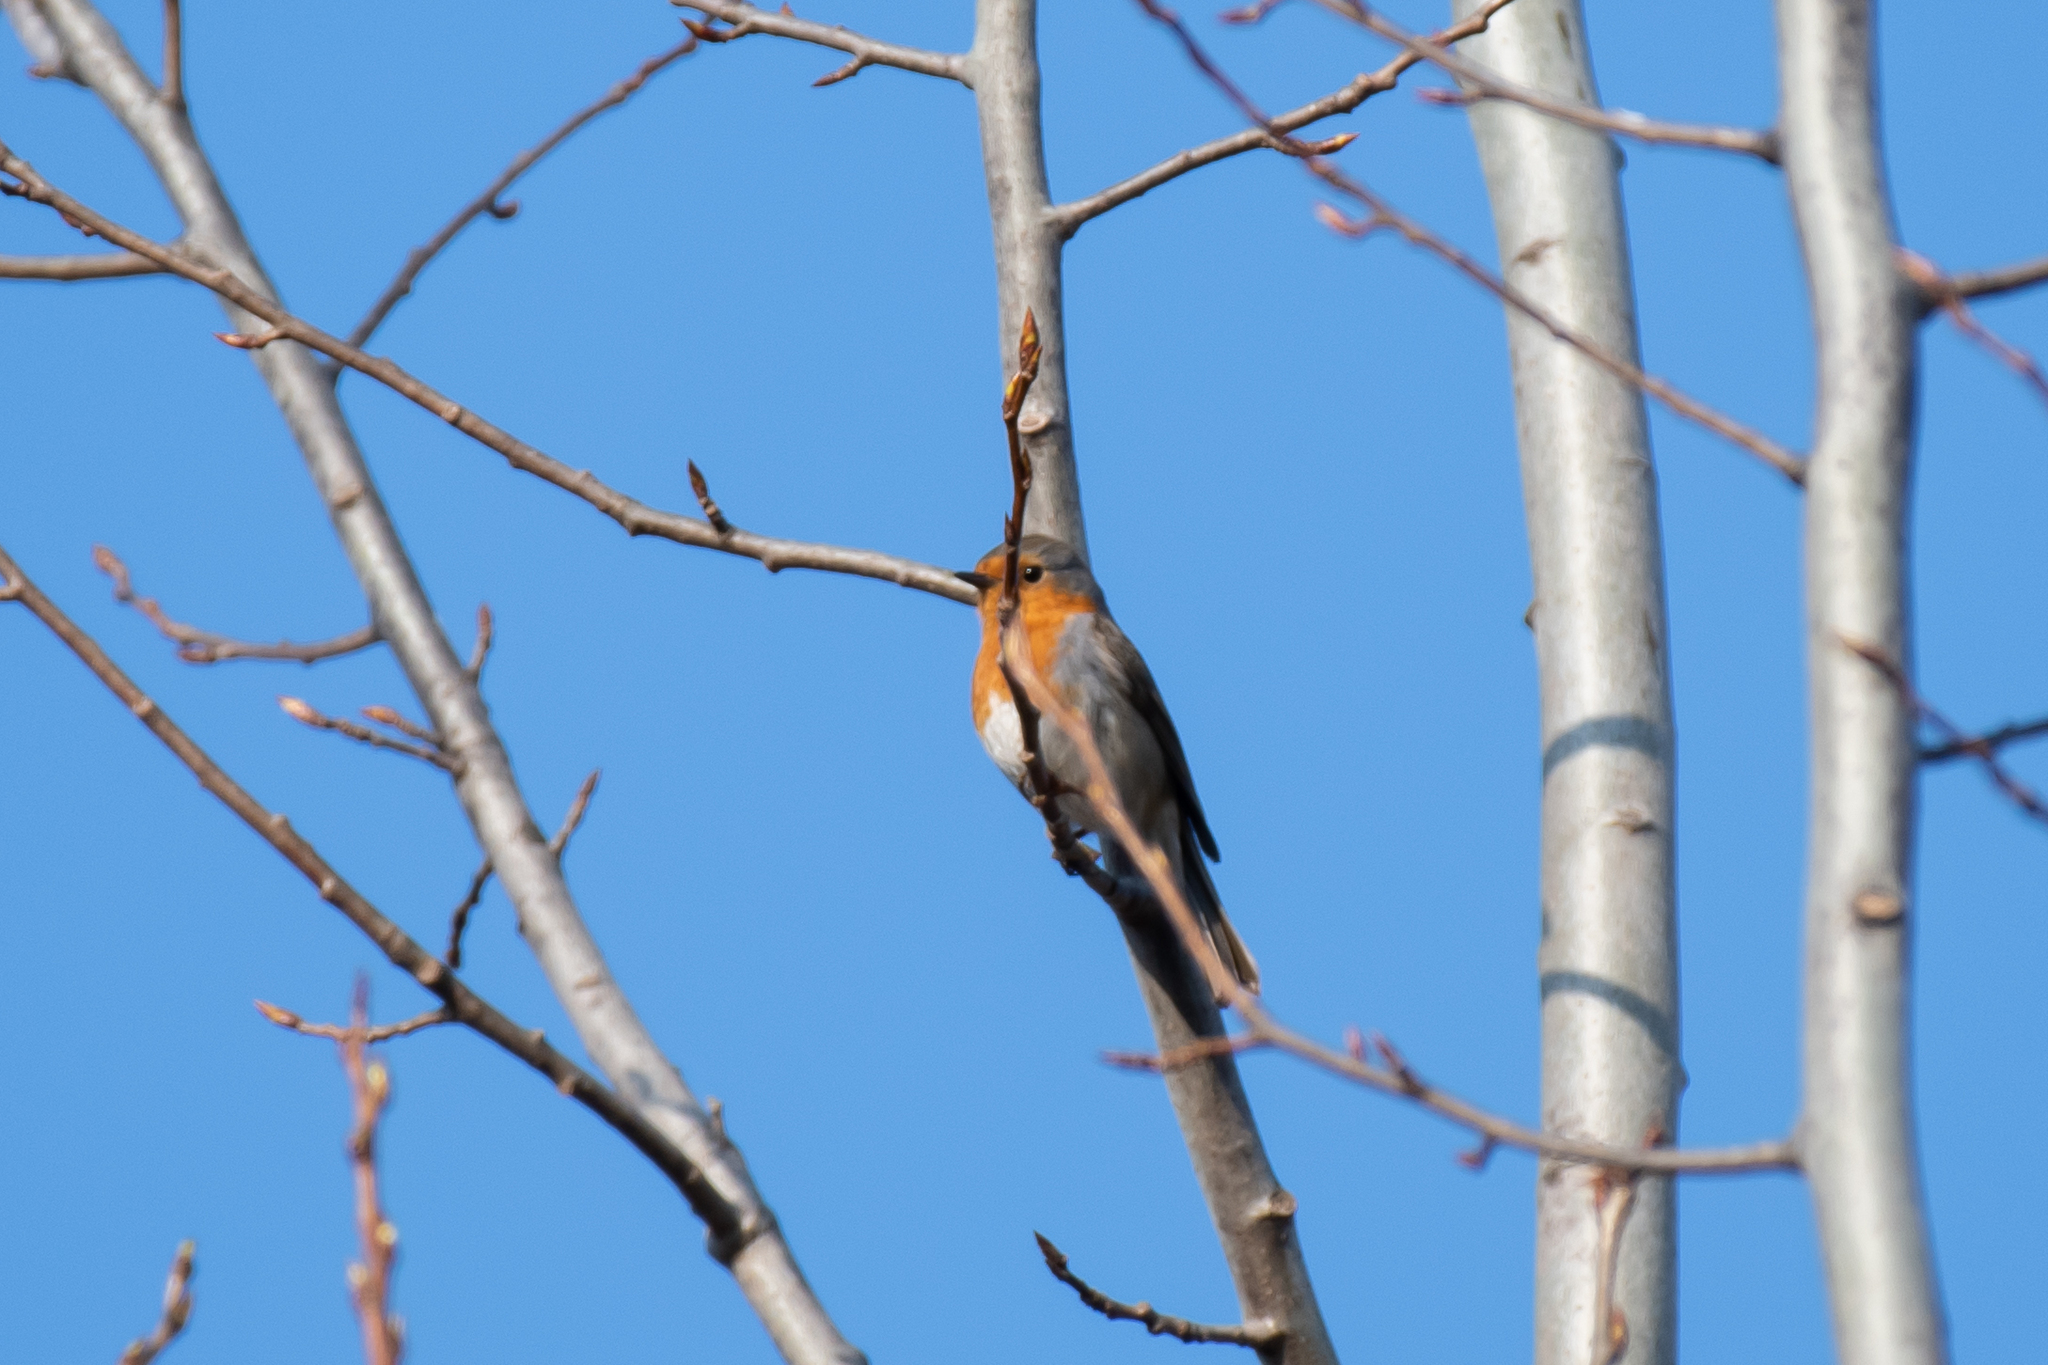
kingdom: Animalia
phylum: Chordata
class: Aves
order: Passeriformes
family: Muscicapidae
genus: Erithacus
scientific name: Erithacus rubecula
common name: European robin
